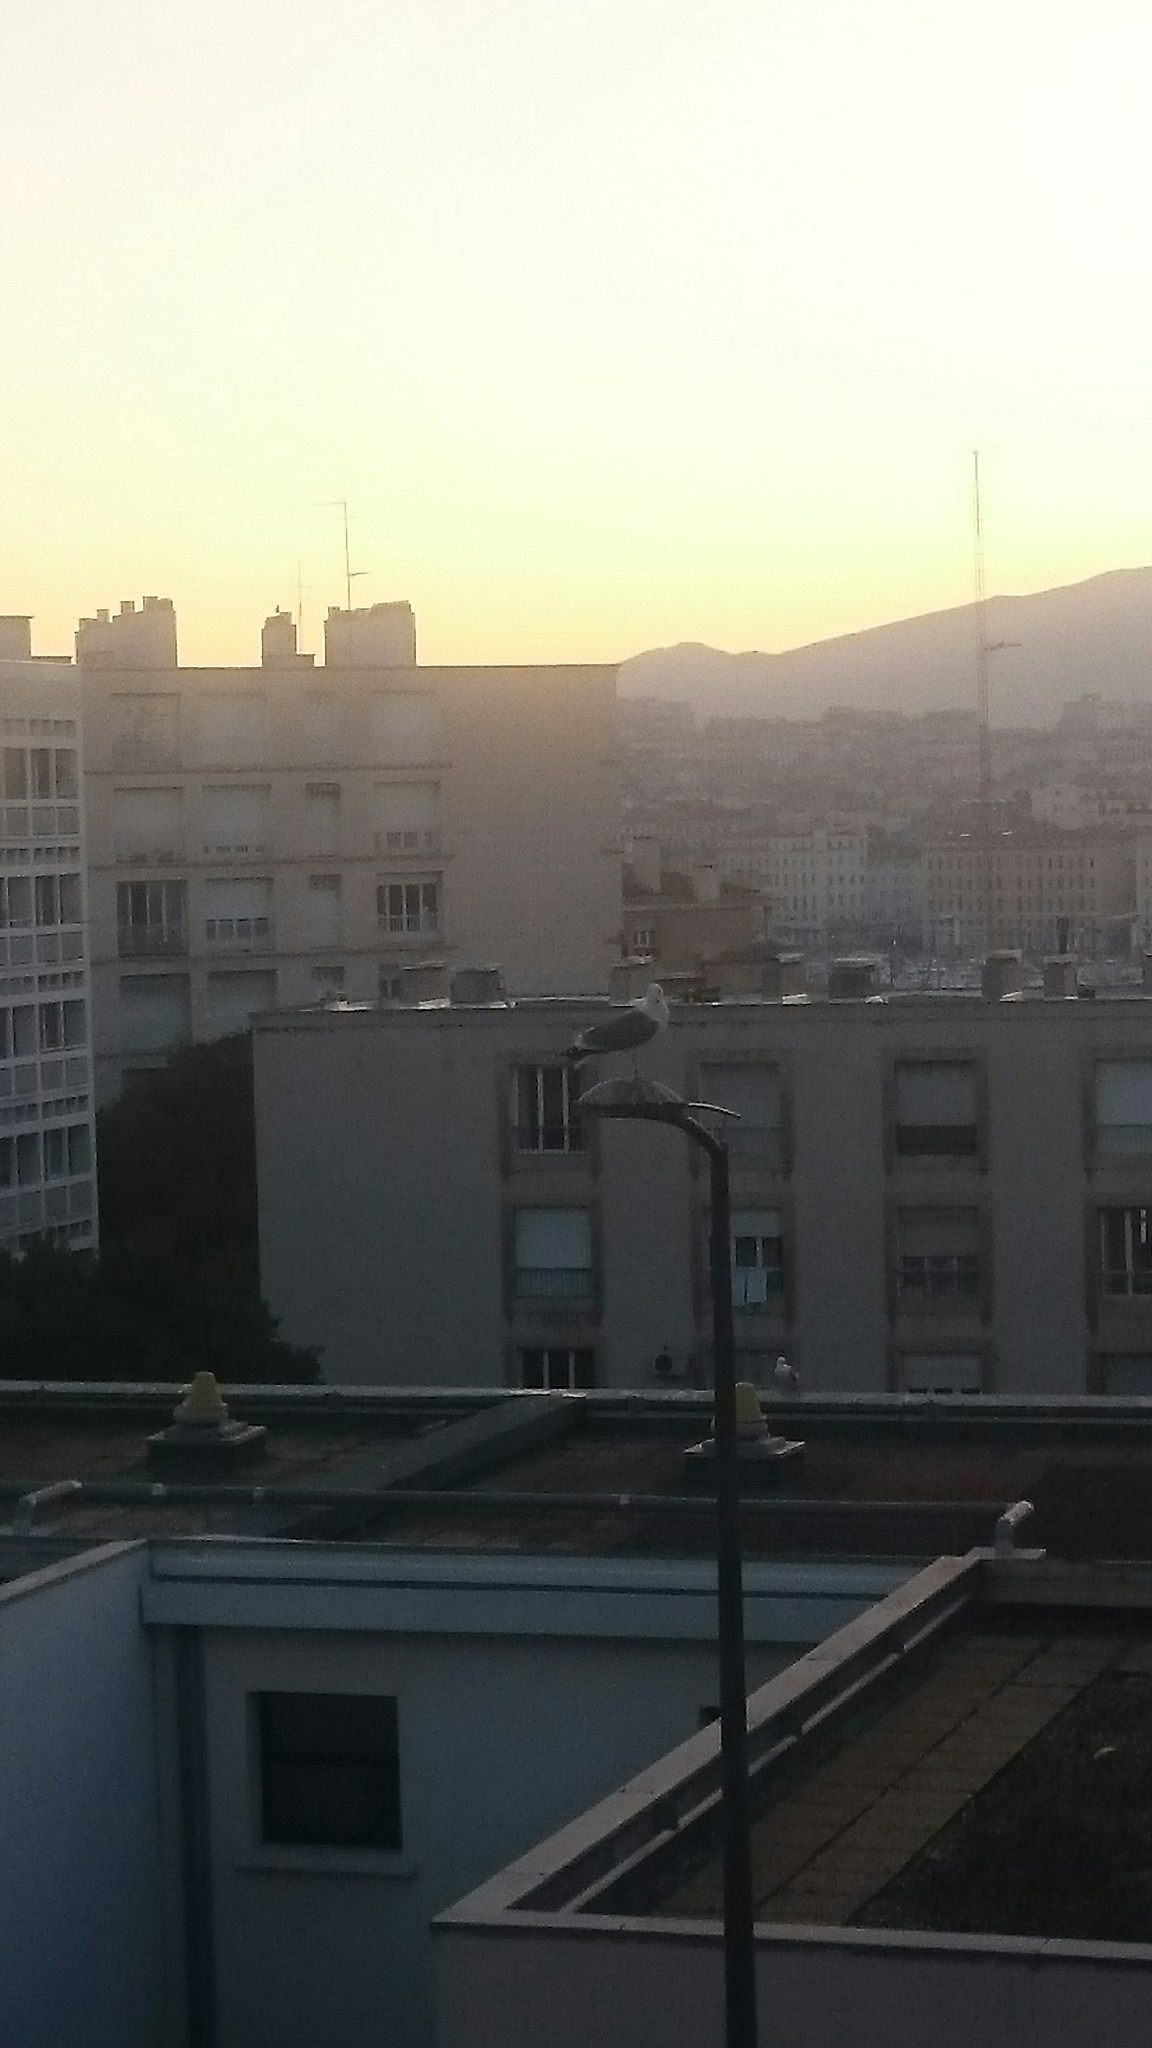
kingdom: Animalia
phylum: Chordata
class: Aves
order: Charadriiformes
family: Laridae
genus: Larus
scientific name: Larus michahellis
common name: Yellow-legged gull
